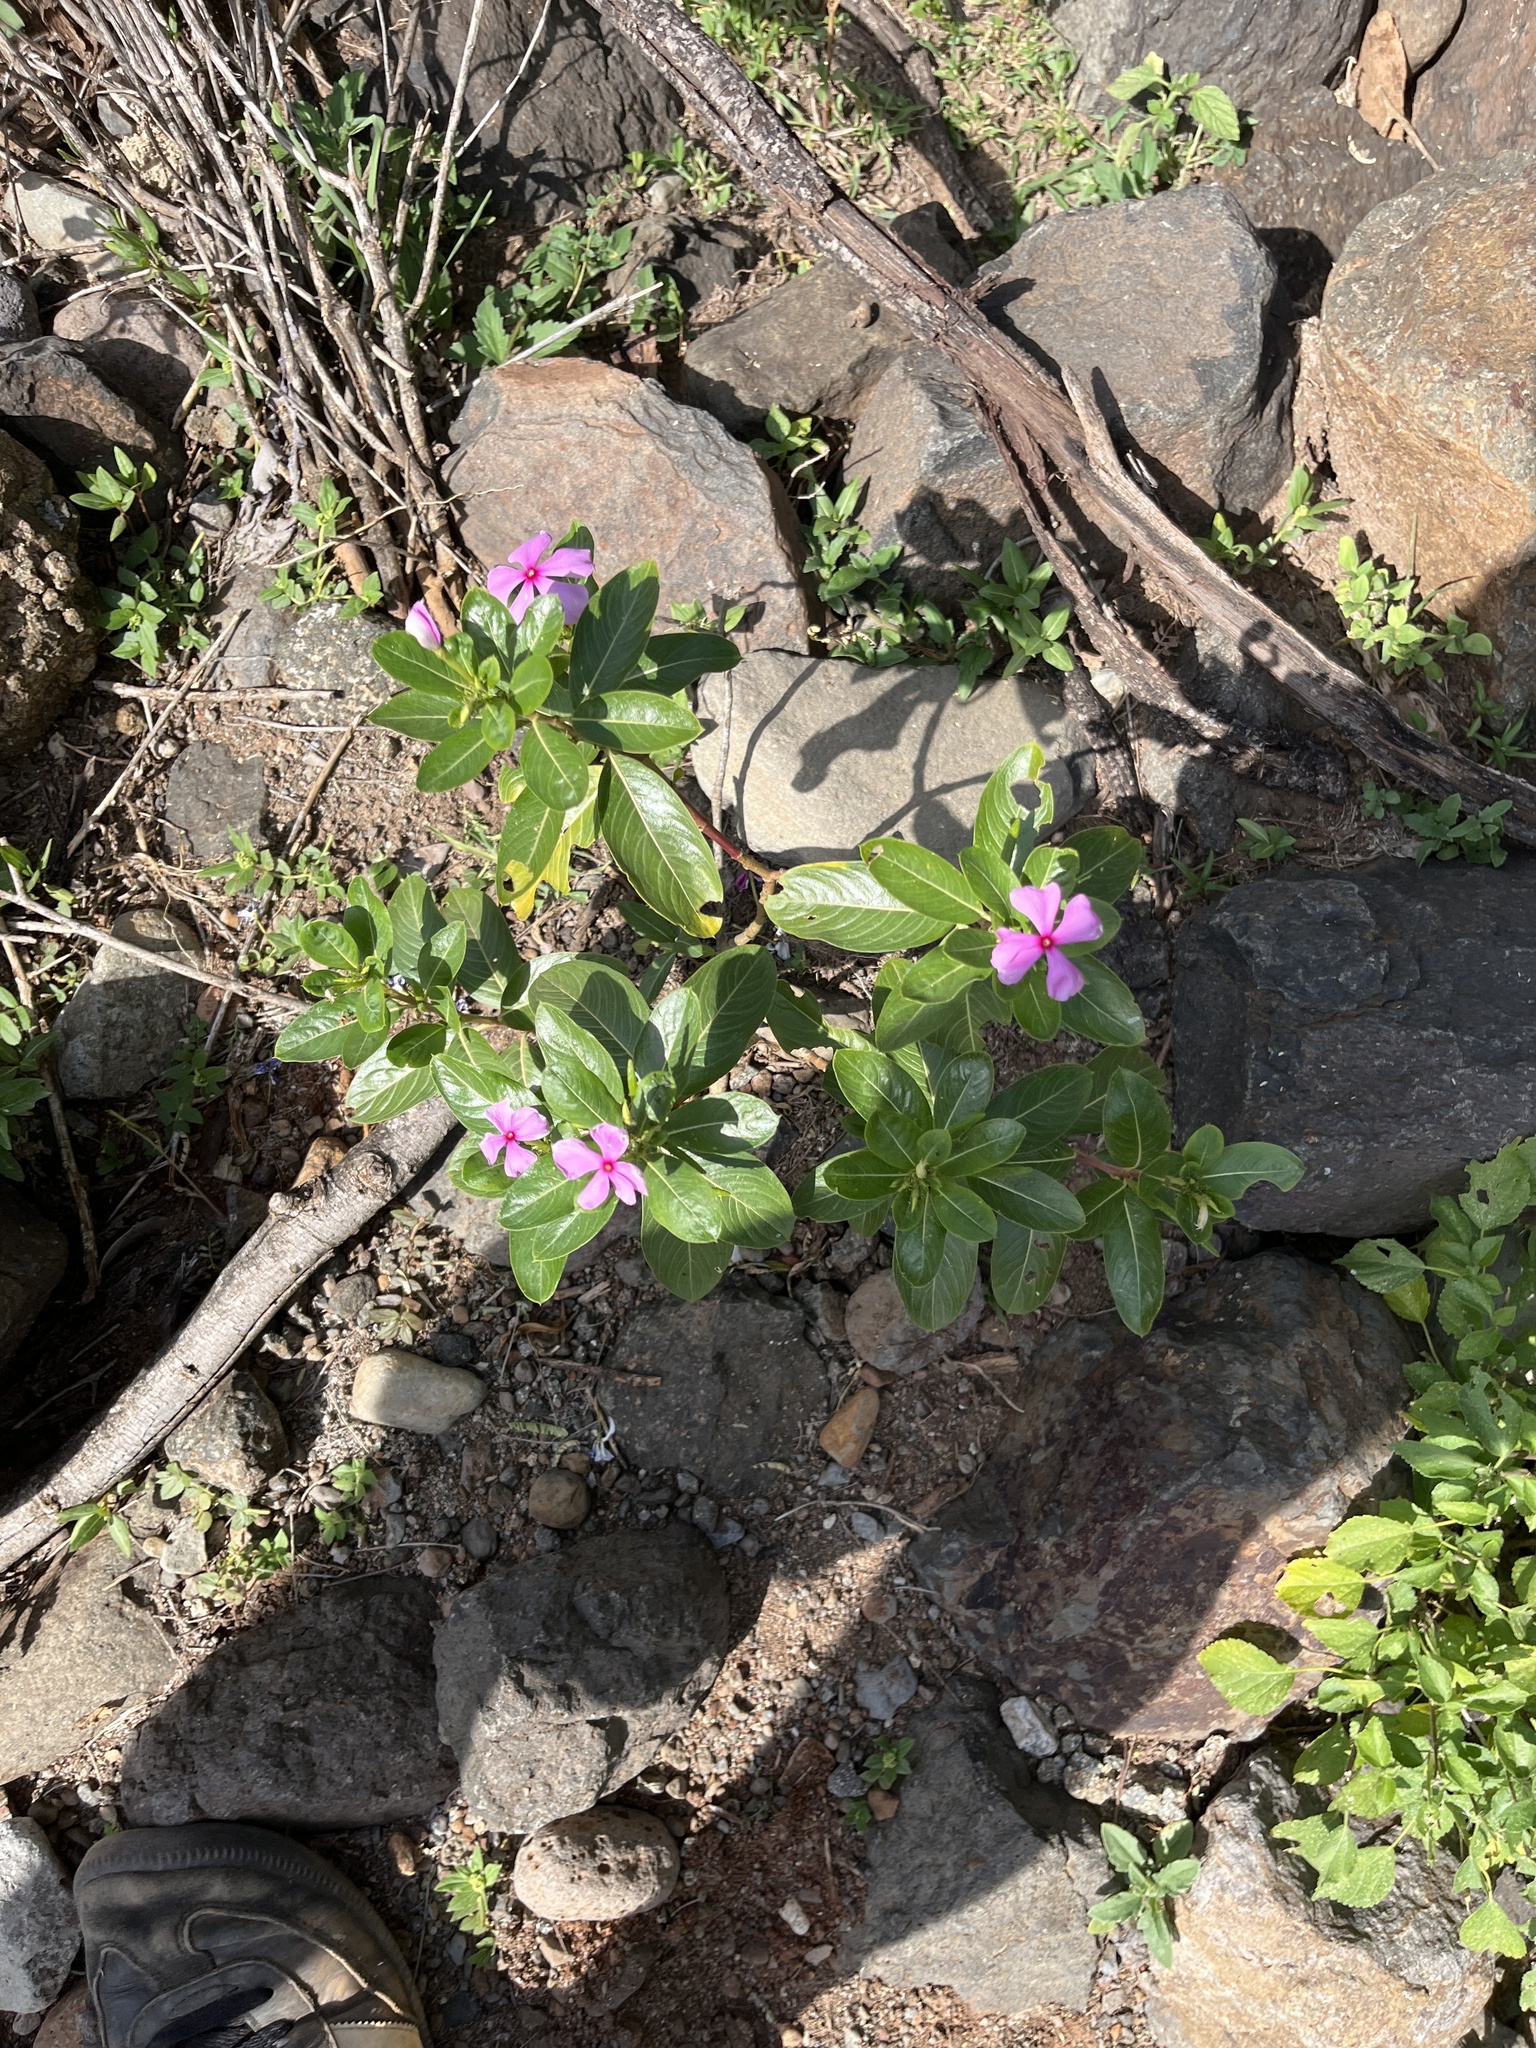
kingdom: Plantae
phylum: Tracheophyta
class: Magnoliopsida
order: Gentianales
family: Apocynaceae
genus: Catharanthus
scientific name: Catharanthus roseus
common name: Madagascar periwinkle
